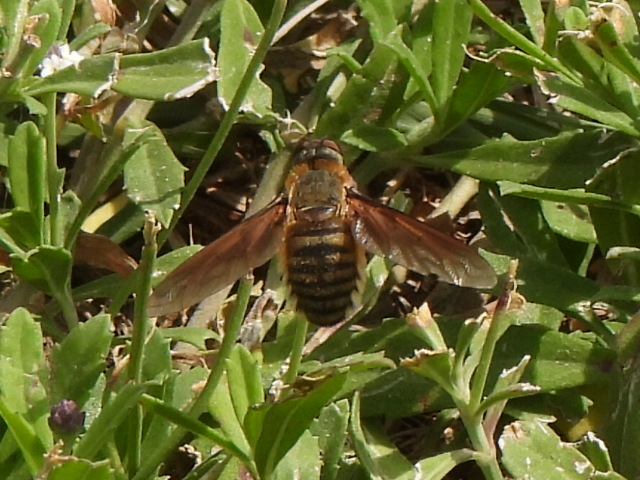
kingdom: Animalia
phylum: Arthropoda
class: Insecta
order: Diptera
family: Bombyliidae
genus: Poecilanthrax
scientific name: Poecilanthrax lucifer
